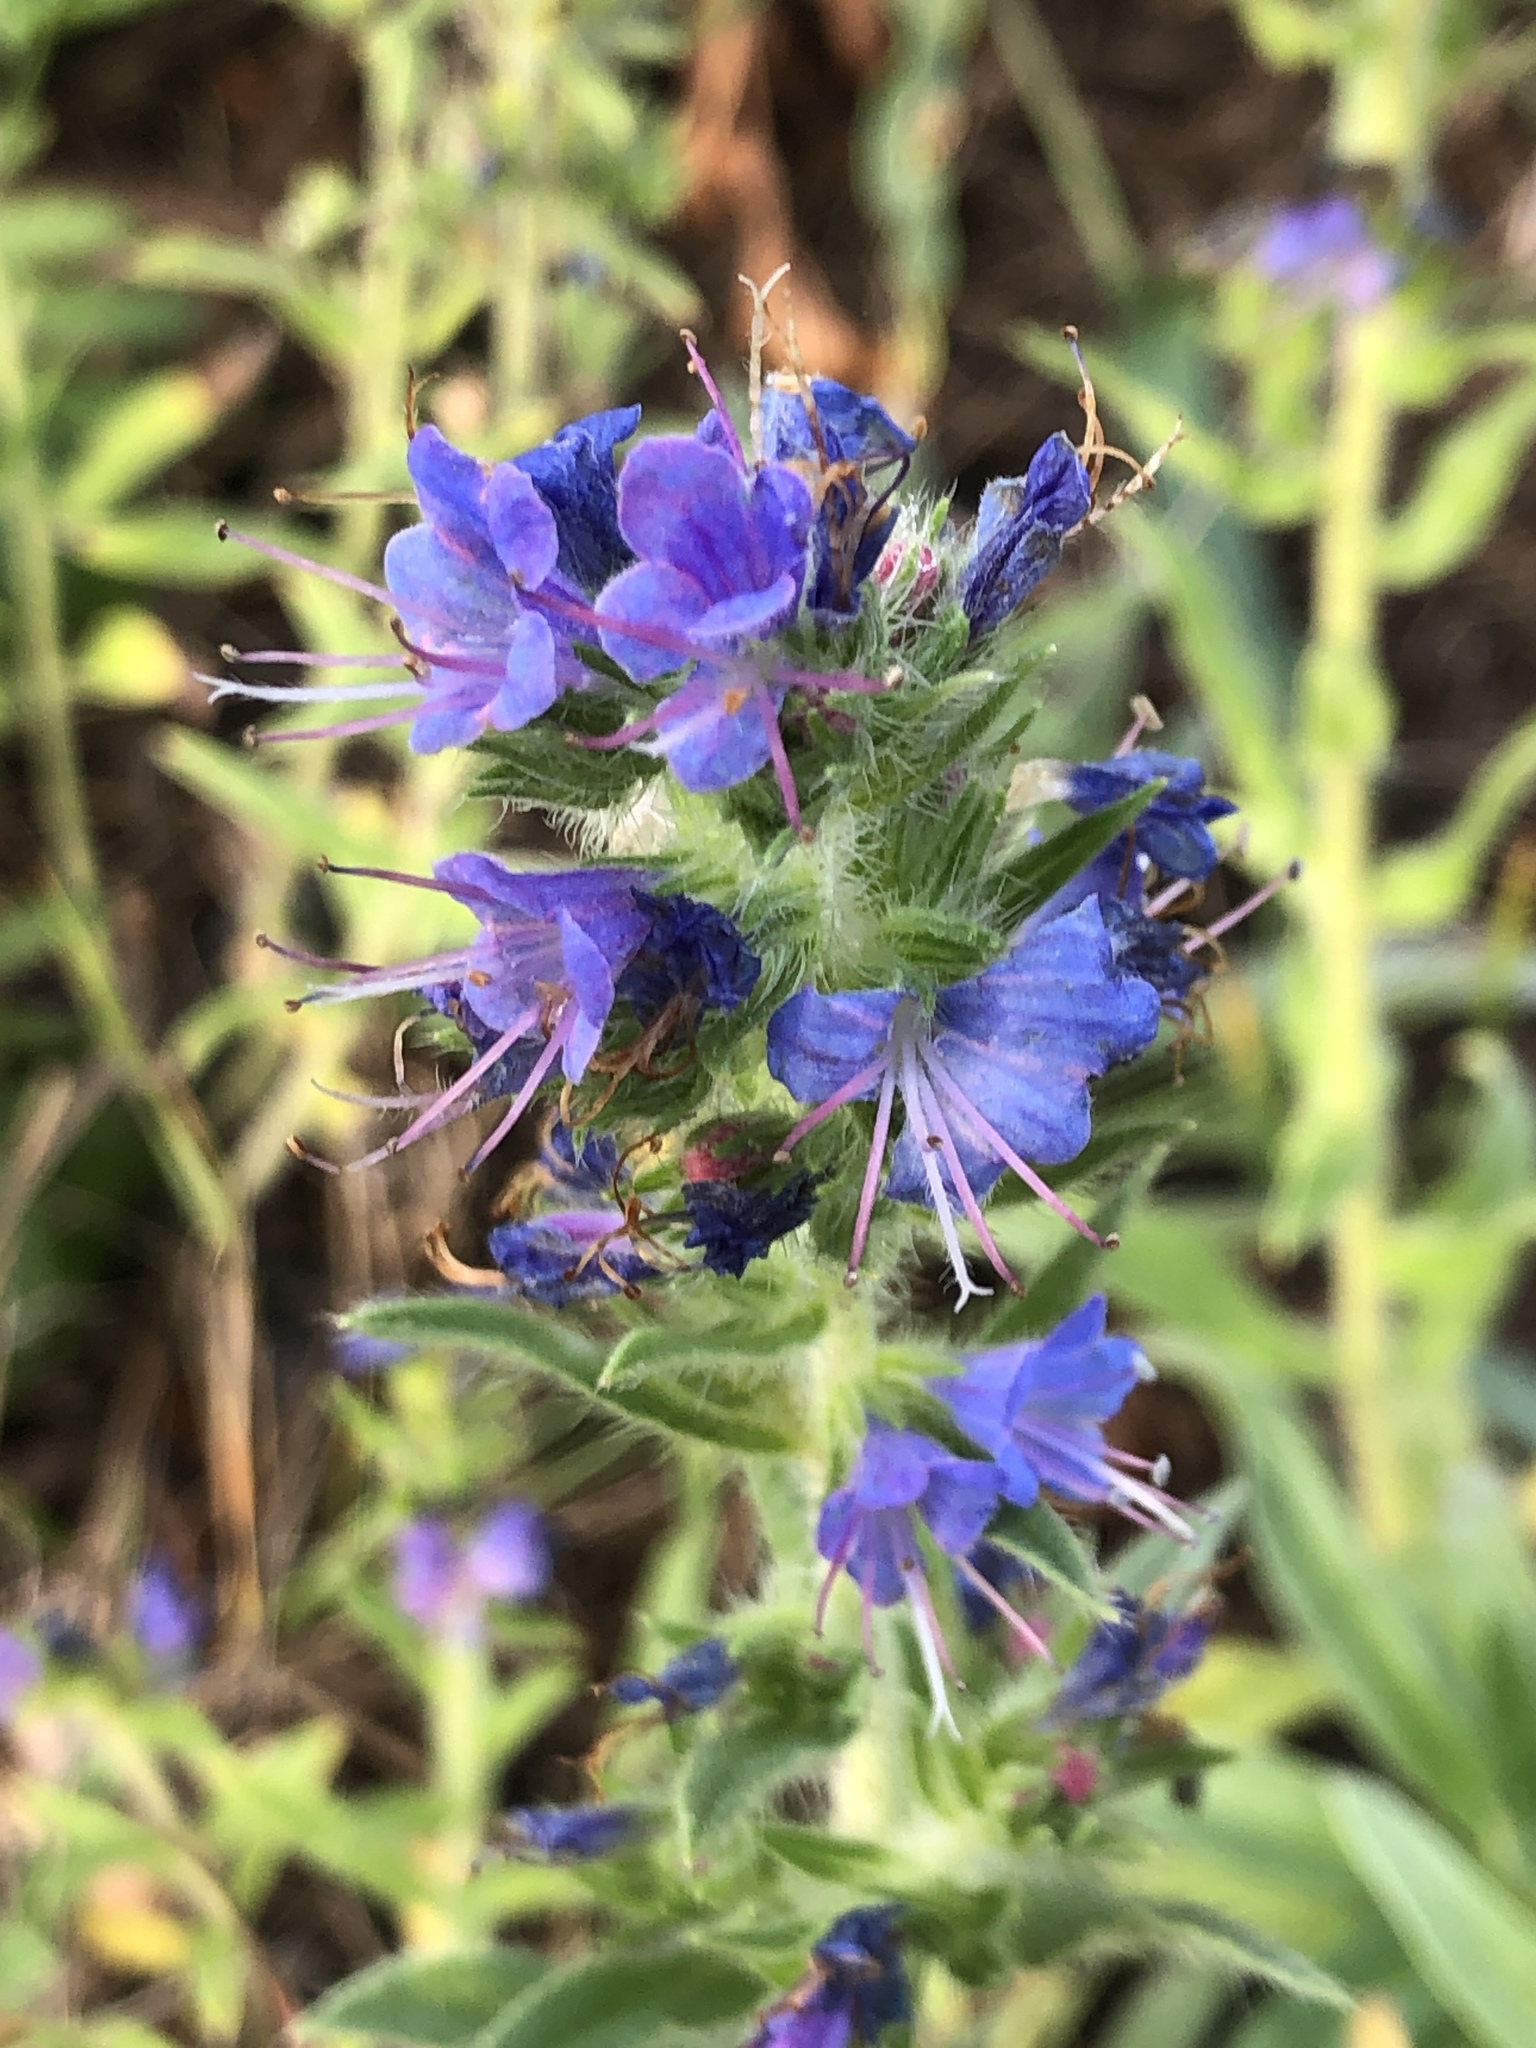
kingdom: Plantae
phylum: Tracheophyta
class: Magnoliopsida
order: Boraginales
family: Boraginaceae
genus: Echium
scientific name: Echium vulgare
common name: Common viper's bugloss
